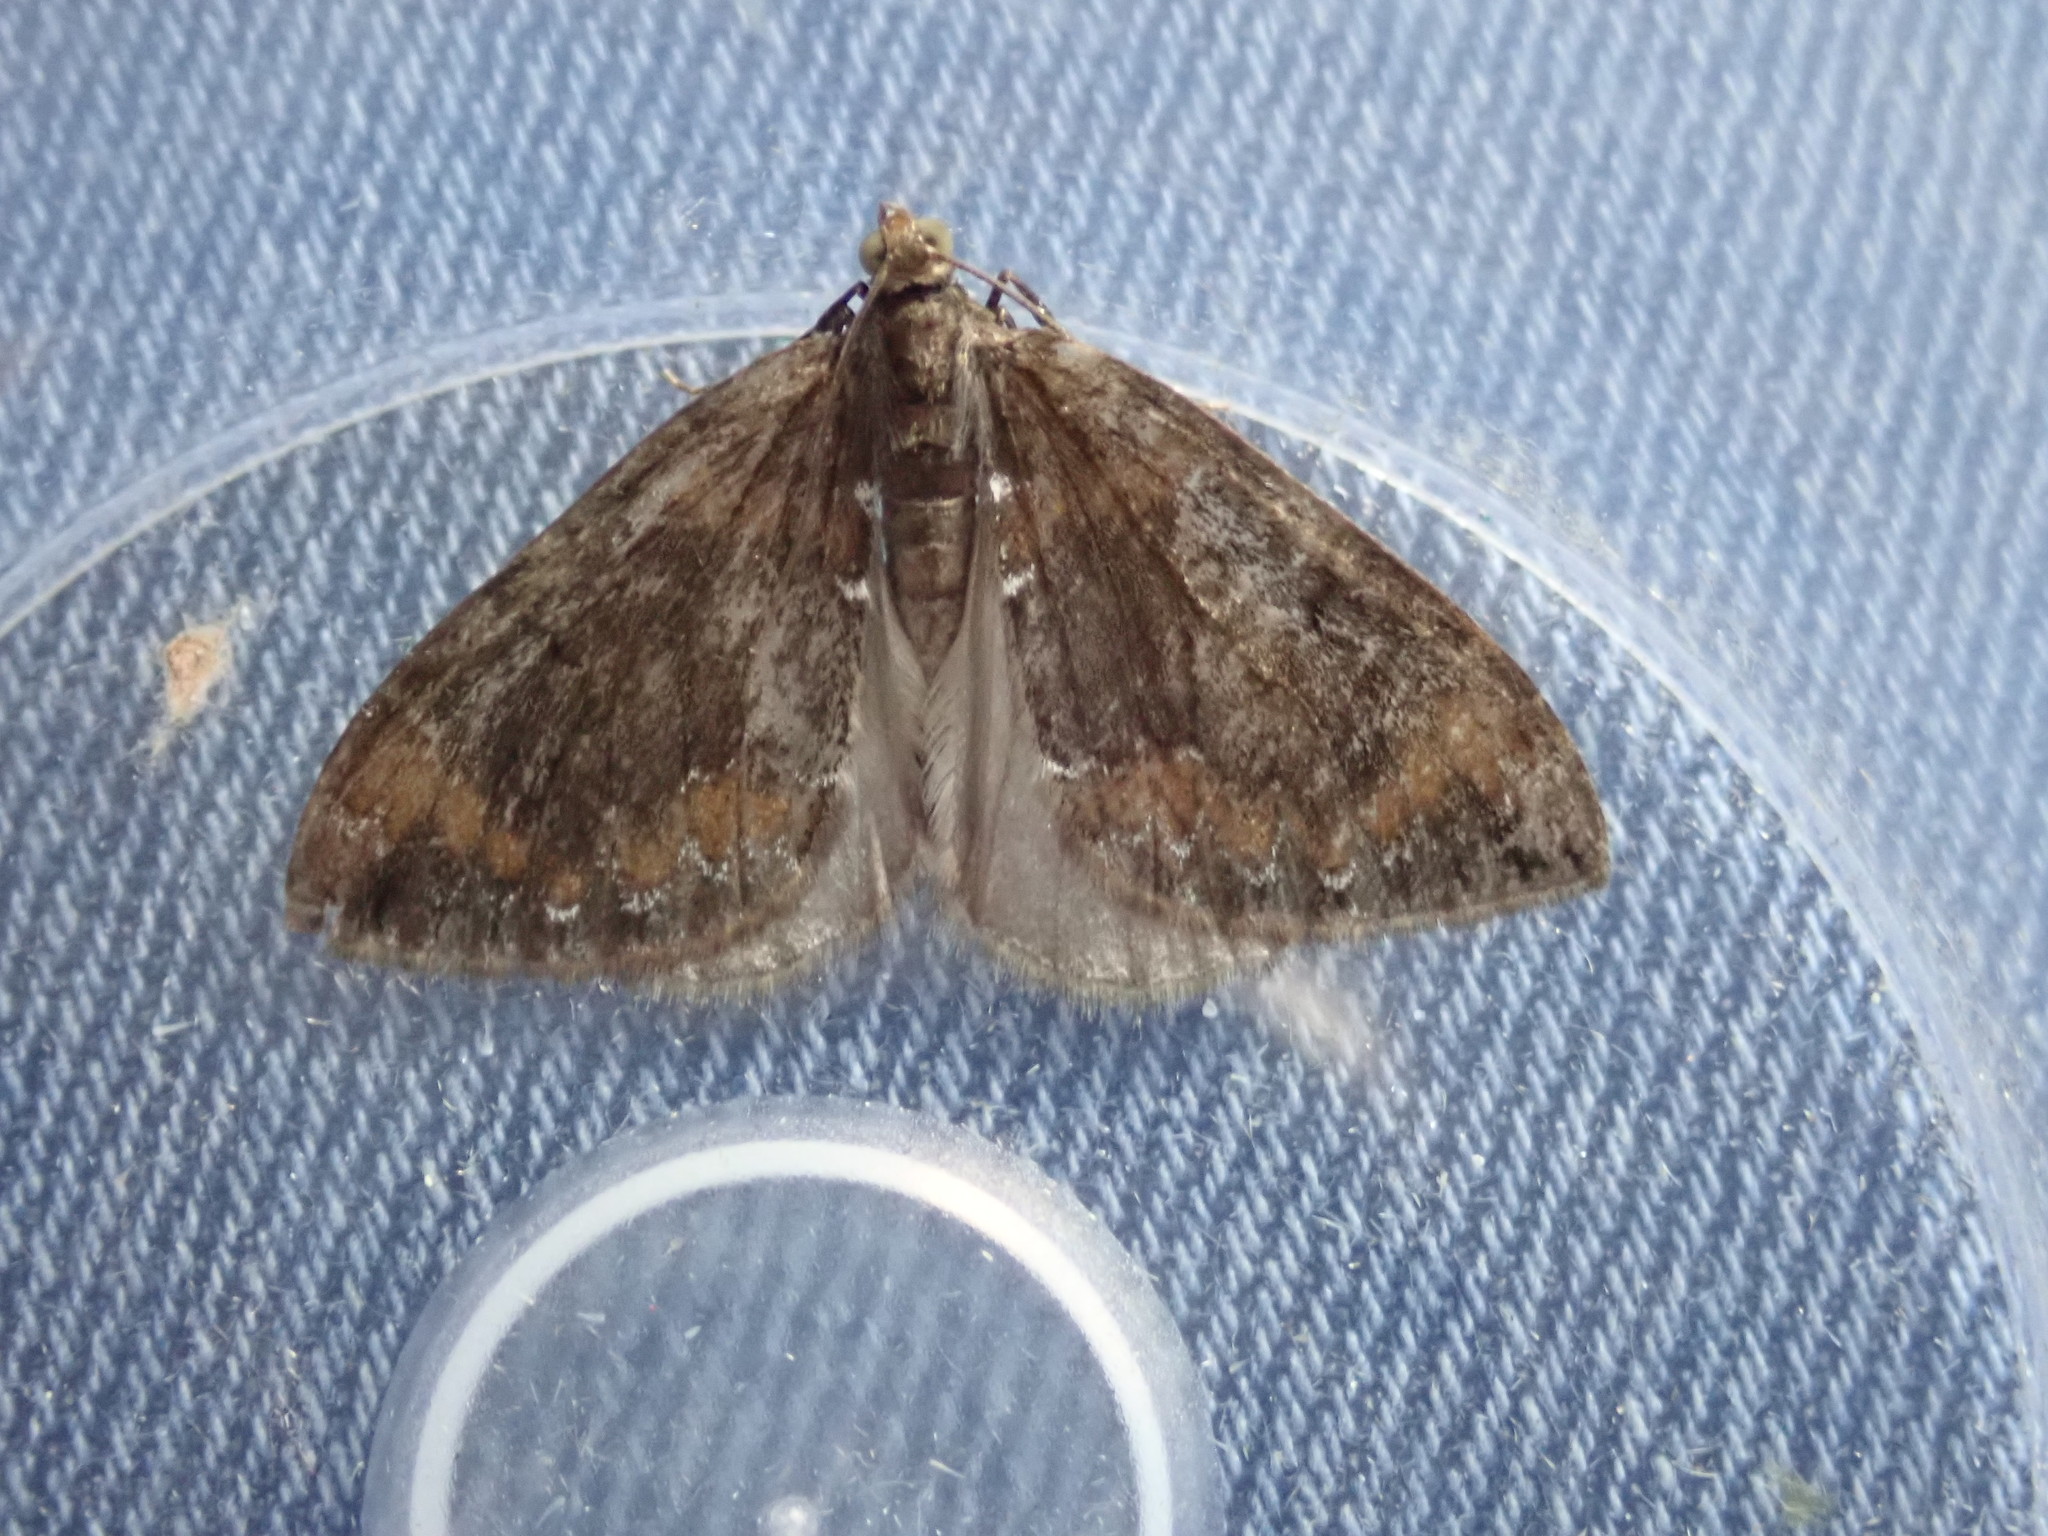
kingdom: Animalia
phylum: Arthropoda
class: Insecta
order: Lepidoptera
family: Geometridae
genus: Dysstroma
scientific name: Dysstroma truncata
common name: Common marbled carpet
